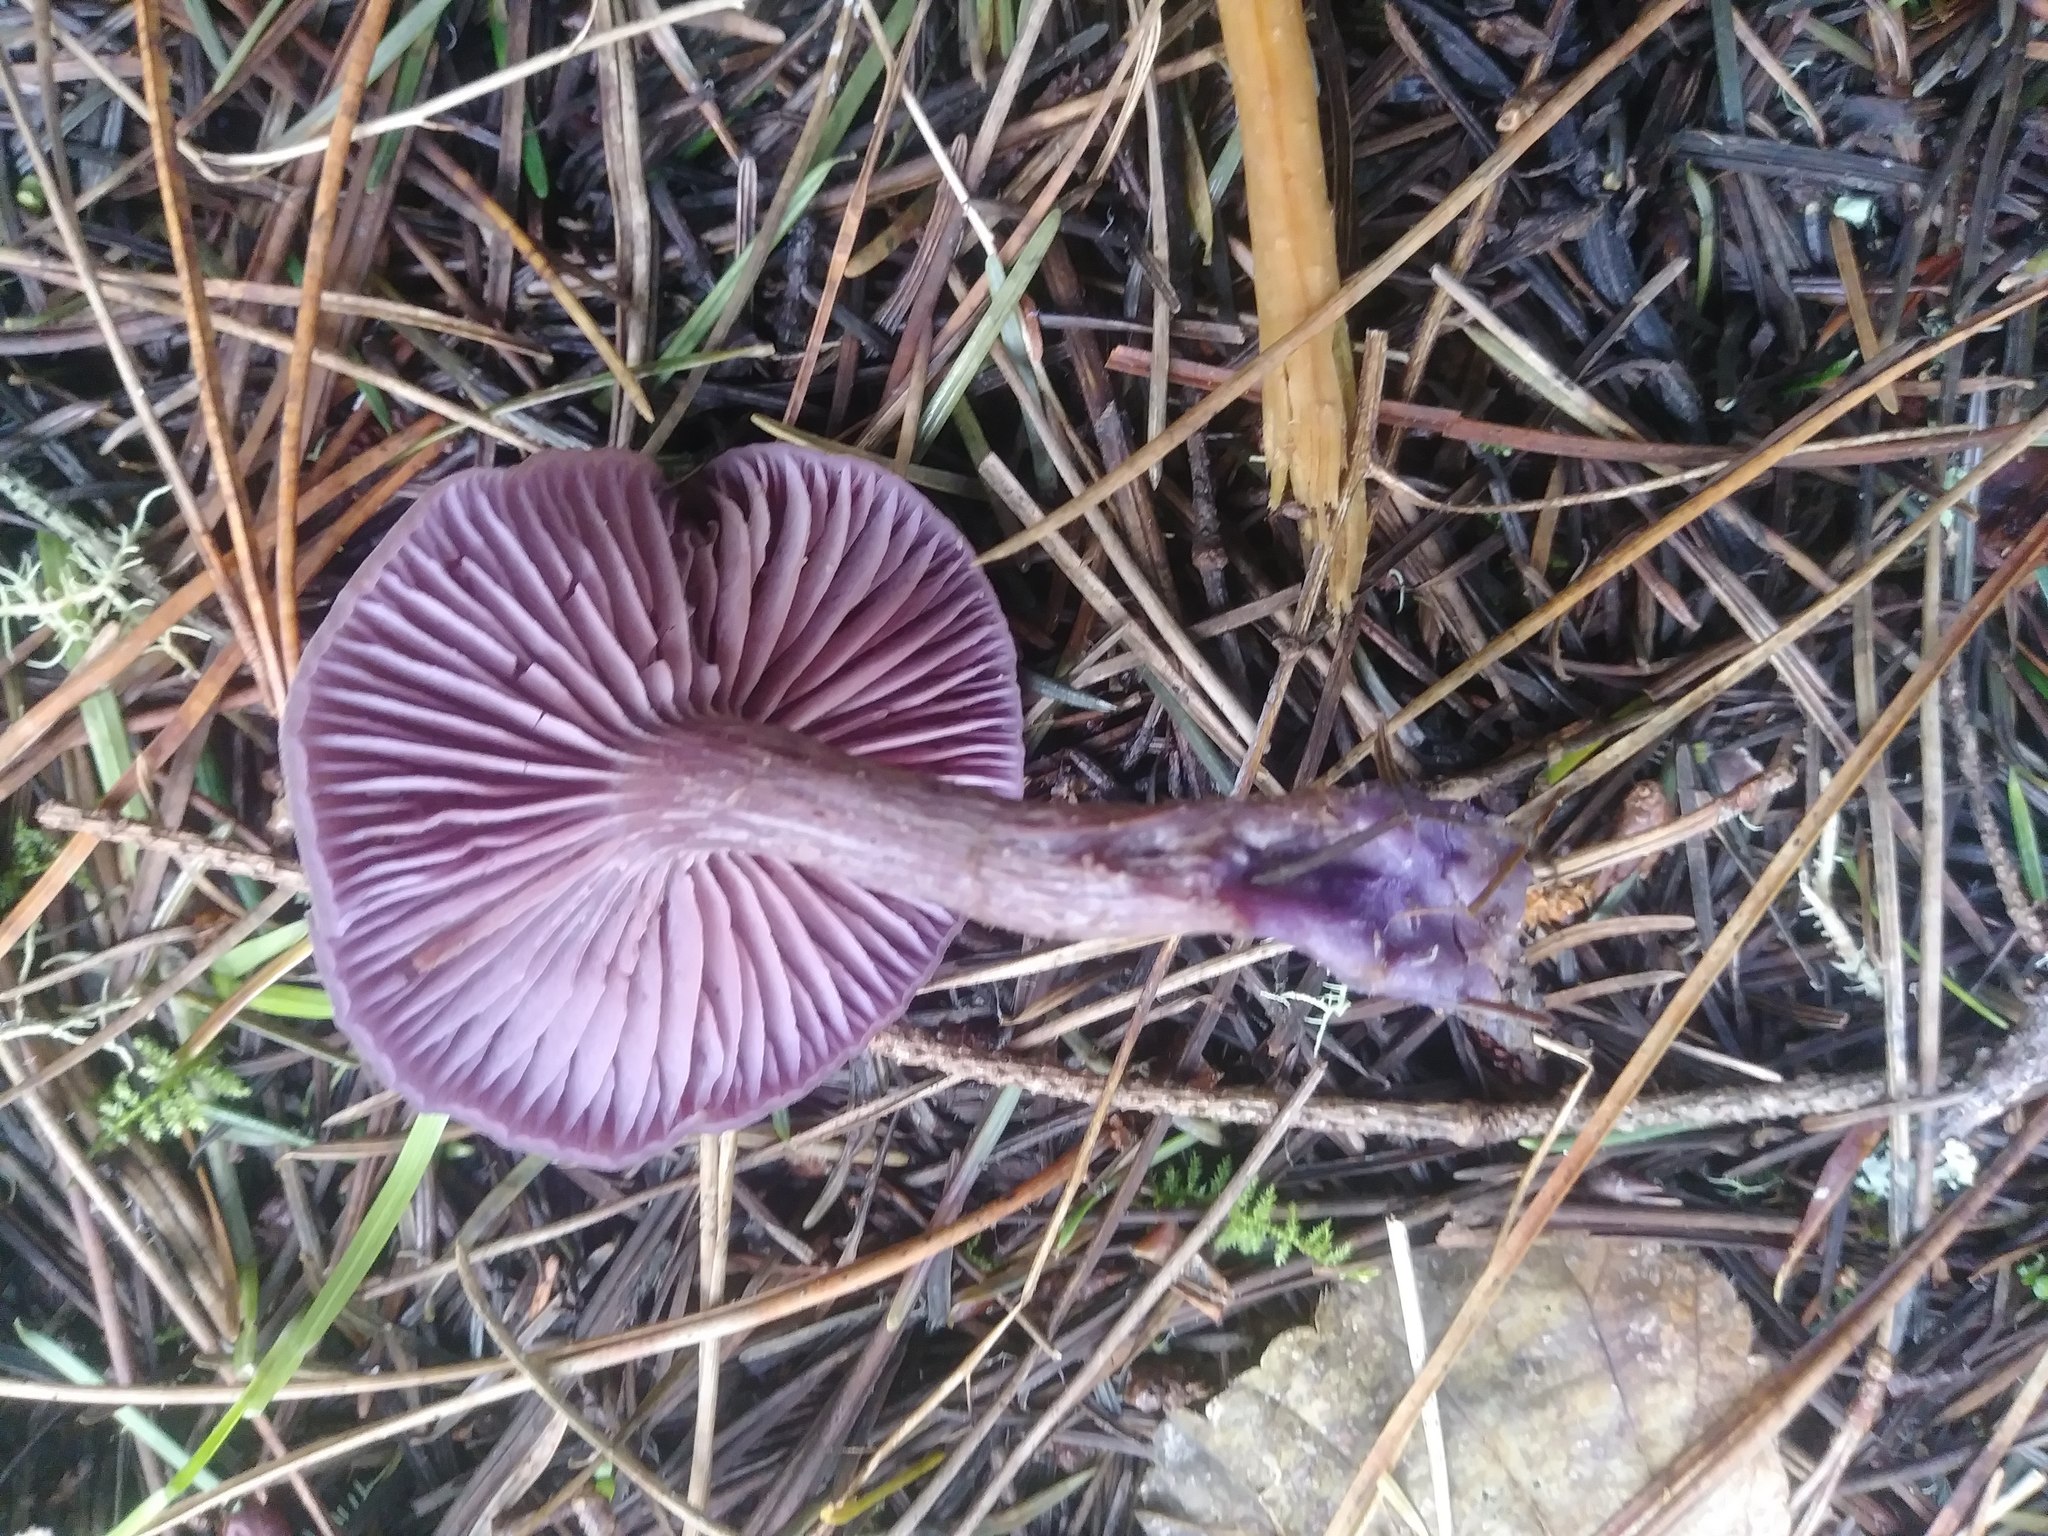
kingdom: Fungi
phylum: Basidiomycota
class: Agaricomycetes
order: Agaricales
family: Hydnangiaceae
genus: Laccaria
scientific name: Laccaria amethysteo-occidentalis
